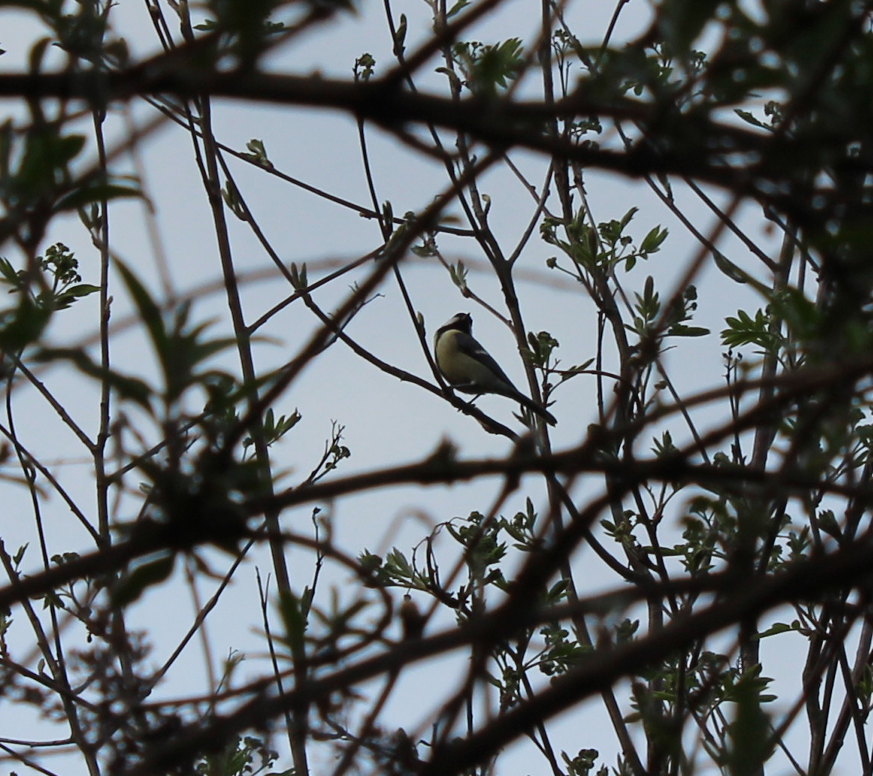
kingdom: Animalia
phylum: Chordata
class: Aves
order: Passeriformes
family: Paridae
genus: Parus
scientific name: Parus major
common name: Great tit
